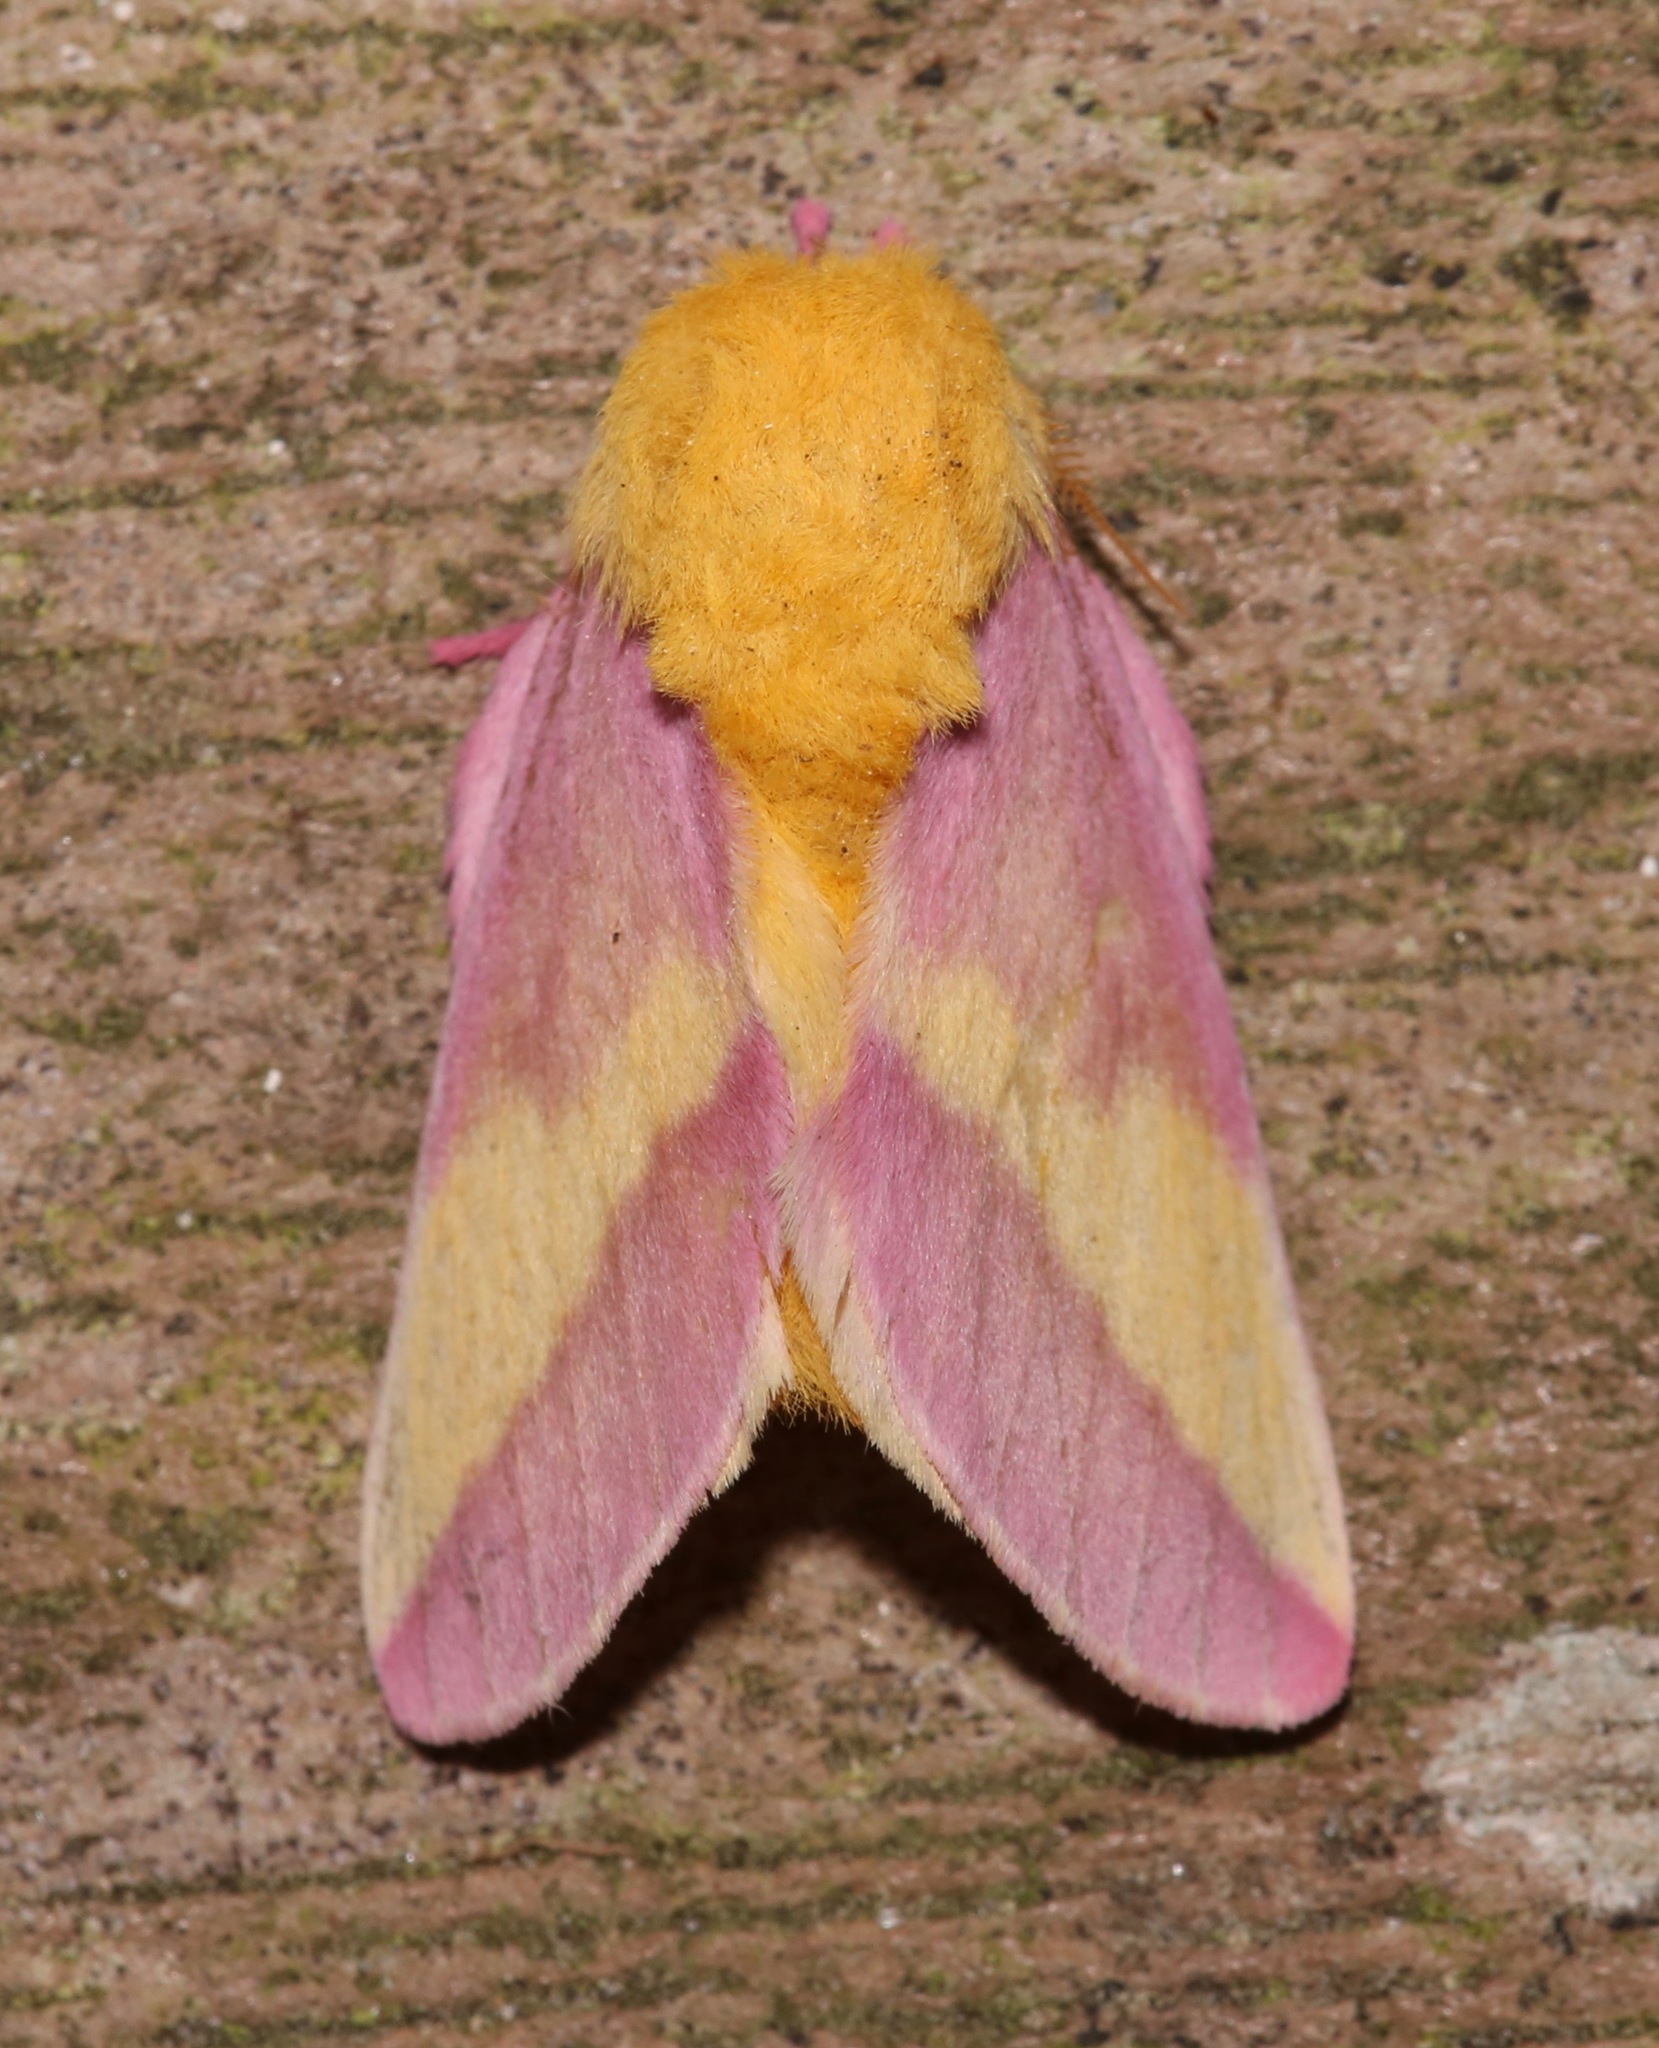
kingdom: Animalia
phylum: Arthropoda
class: Insecta
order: Lepidoptera
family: Saturniidae
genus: Dryocampa
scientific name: Dryocampa rubicunda
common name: Rosy maple moth
